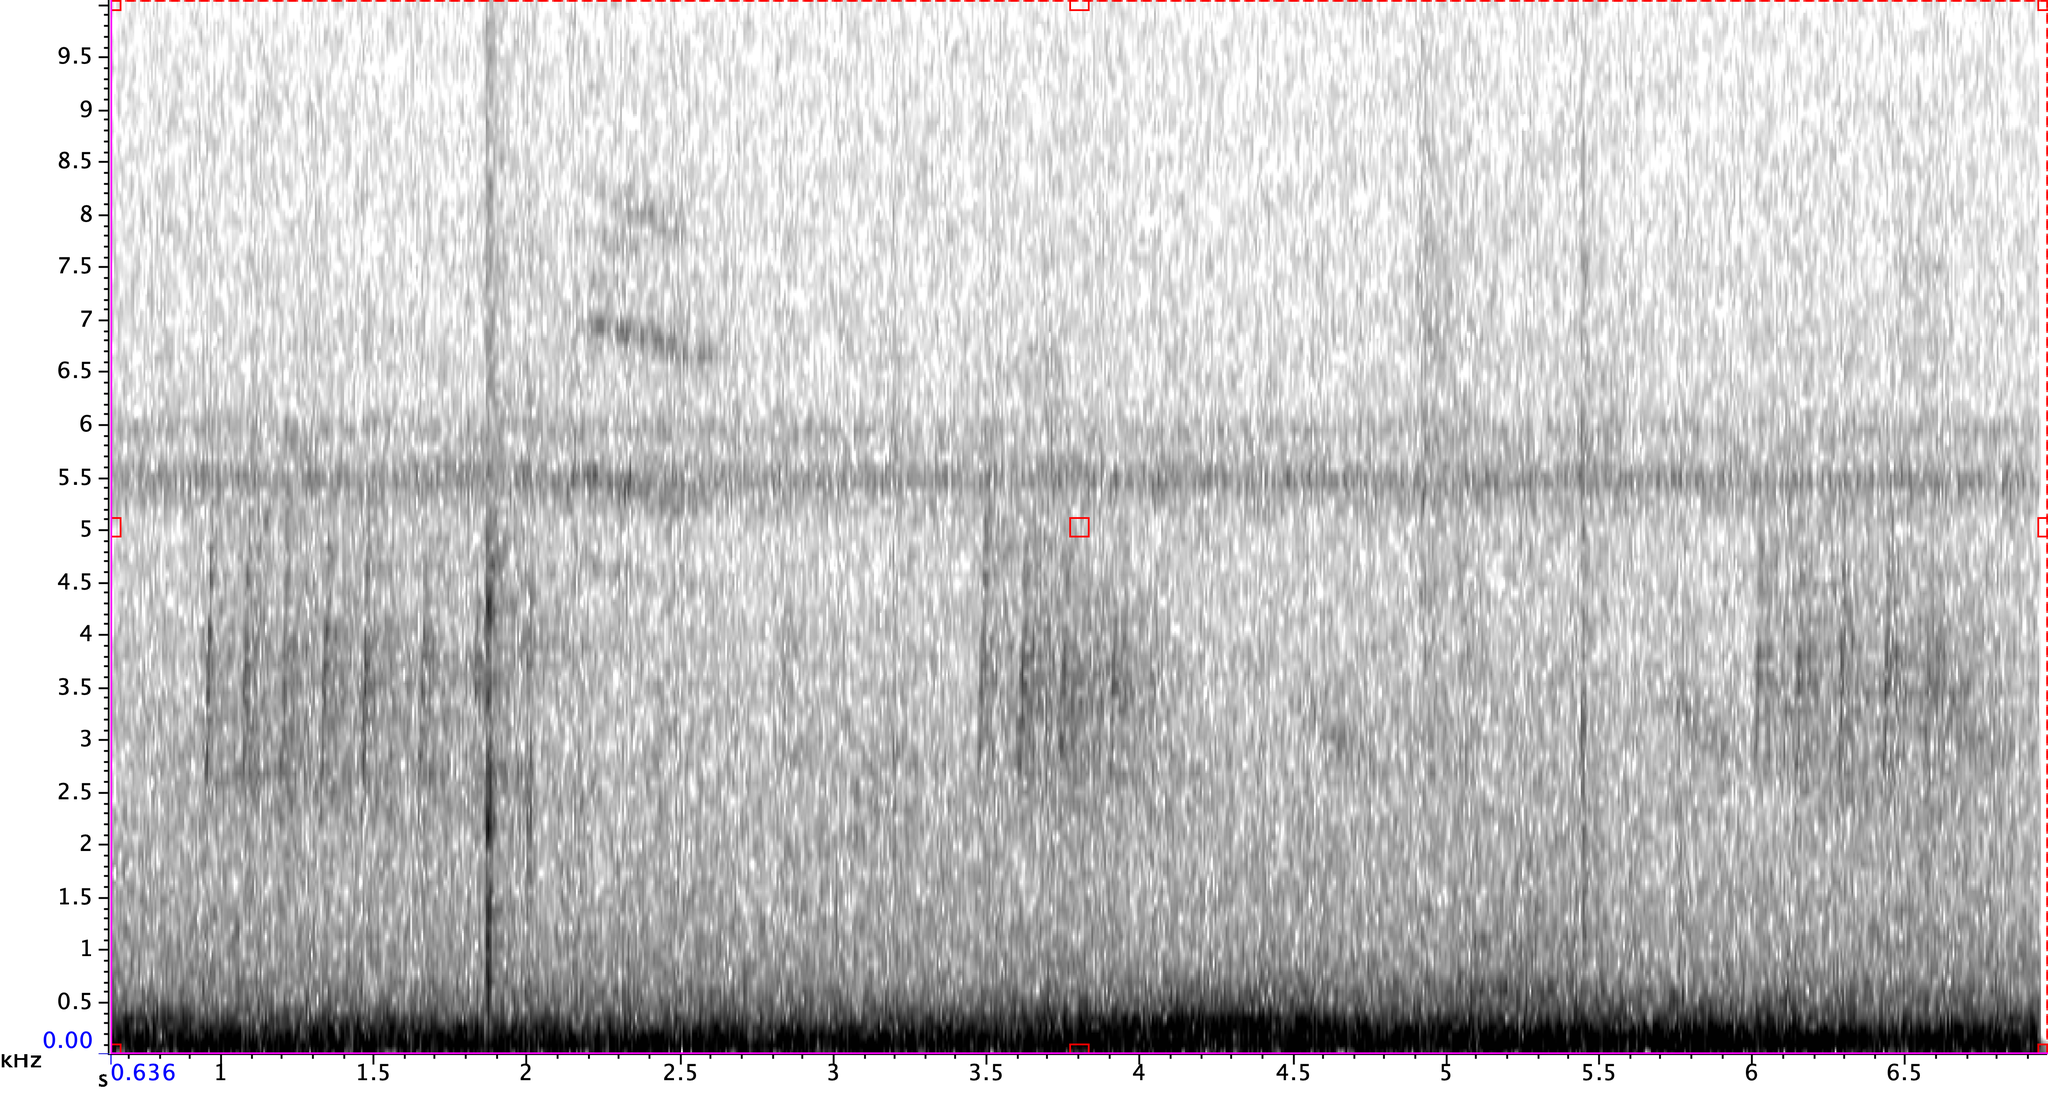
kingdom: Animalia
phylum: Chordata
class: Aves
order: Passeriformes
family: Turdidae
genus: Hylocichla
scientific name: Hylocichla mustelina
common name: Wood thrush
